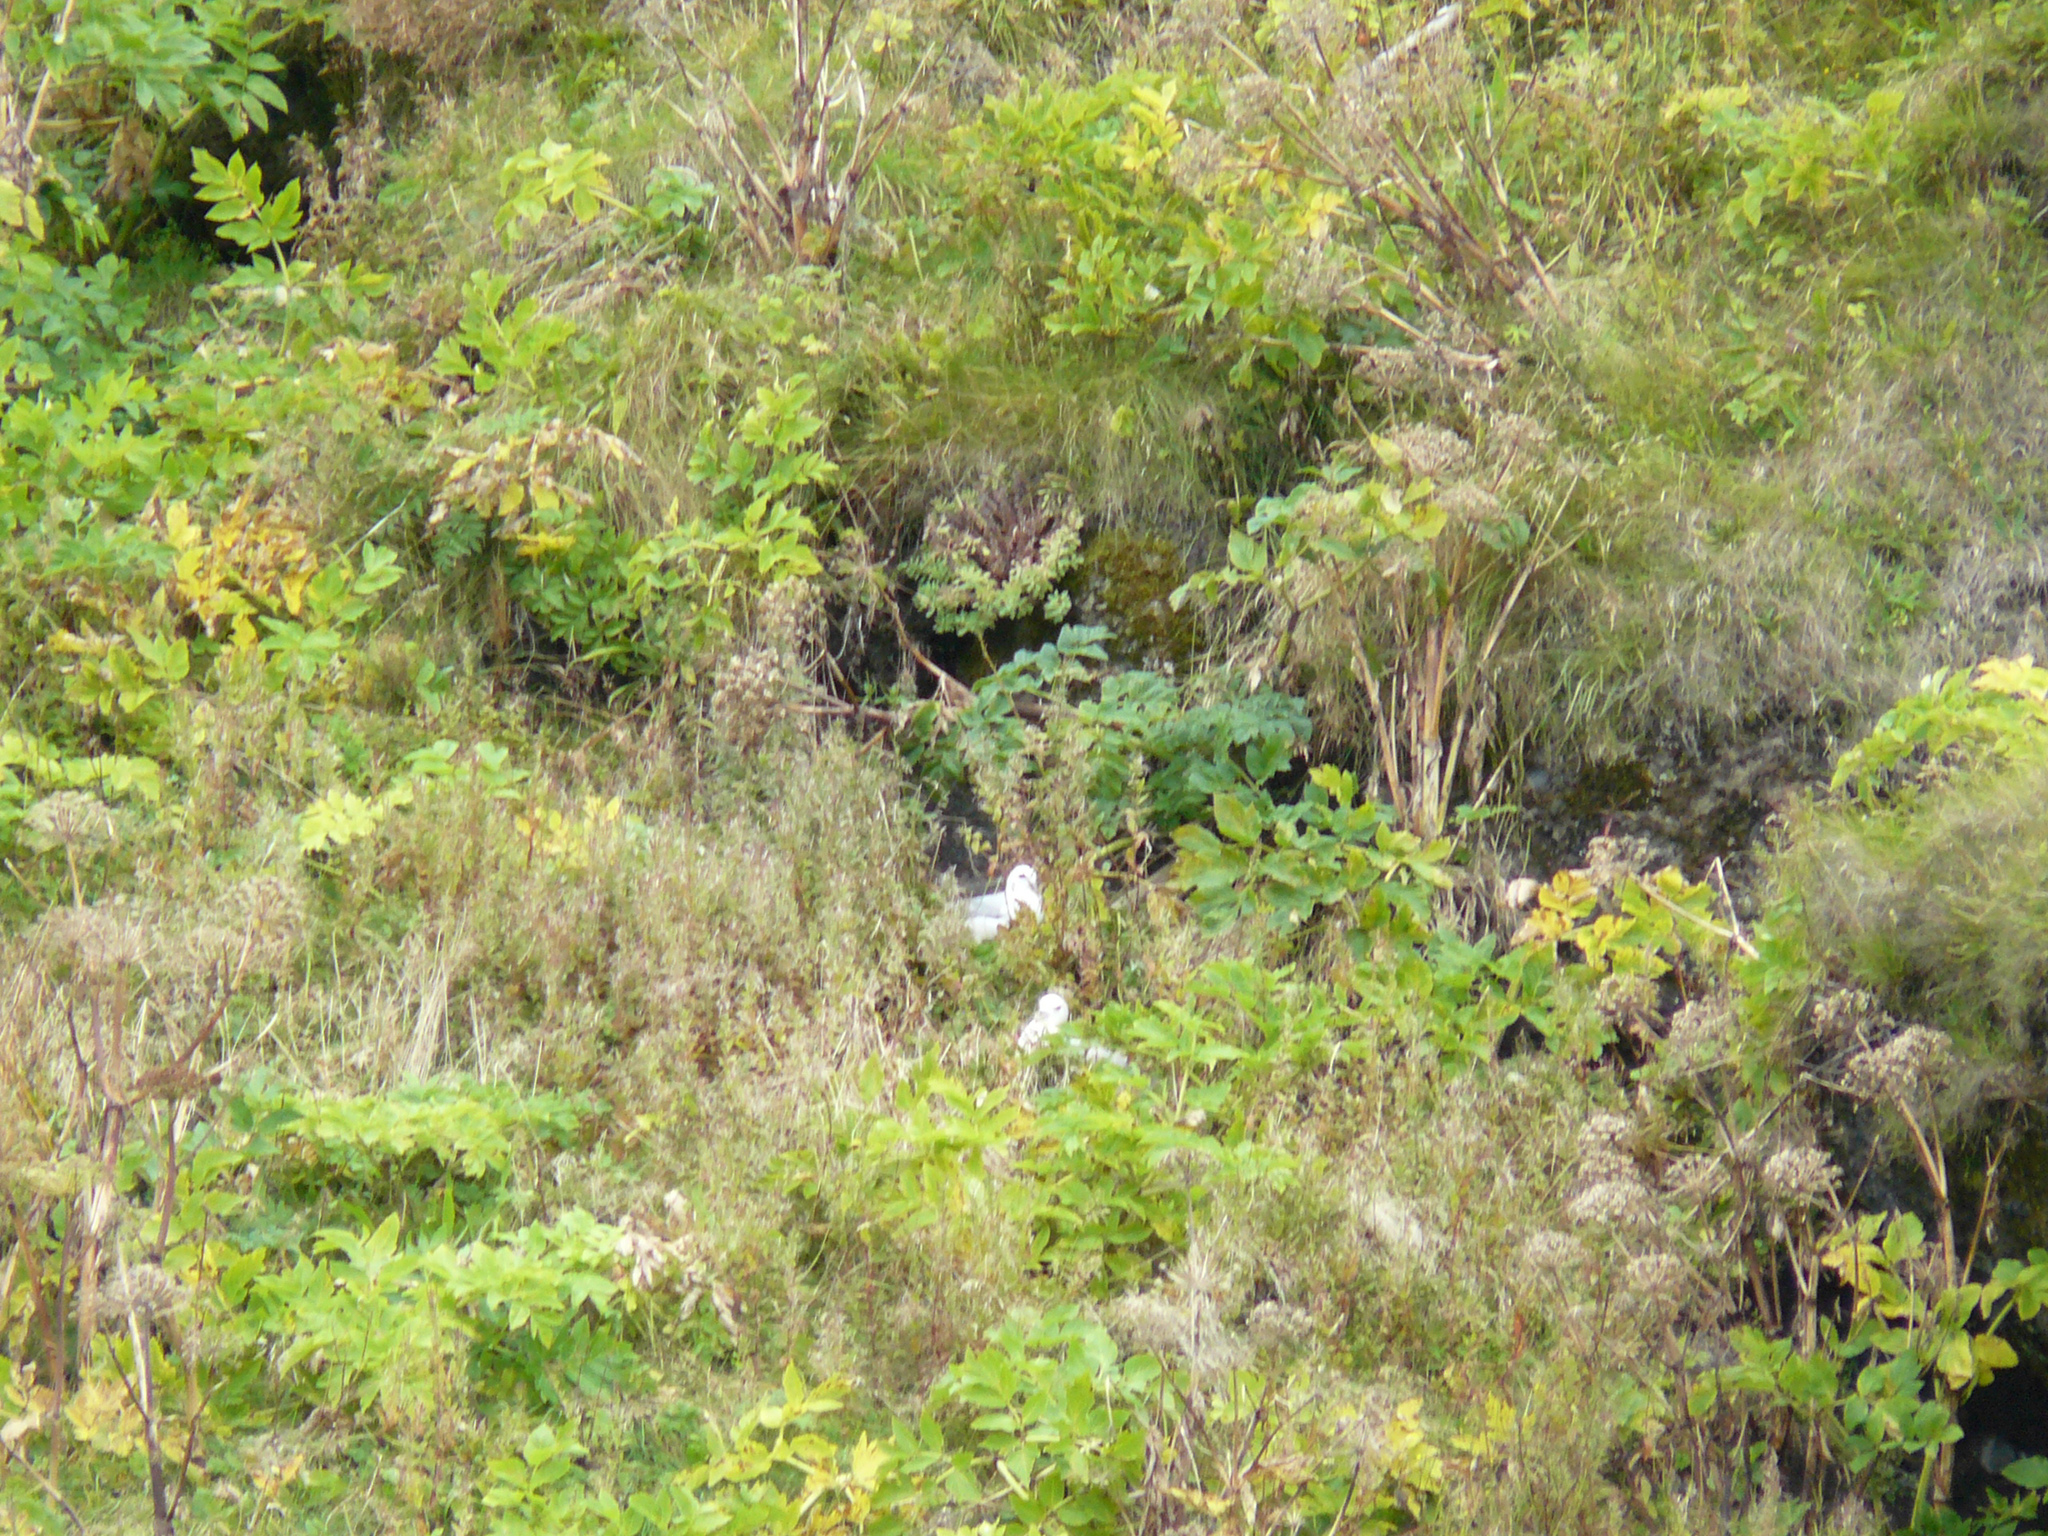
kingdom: Animalia
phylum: Chordata
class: Aves
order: Procellariiformes
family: Procellariidae
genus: Fulmarus
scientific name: Fulmarus glacialis
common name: Northern fulmar
